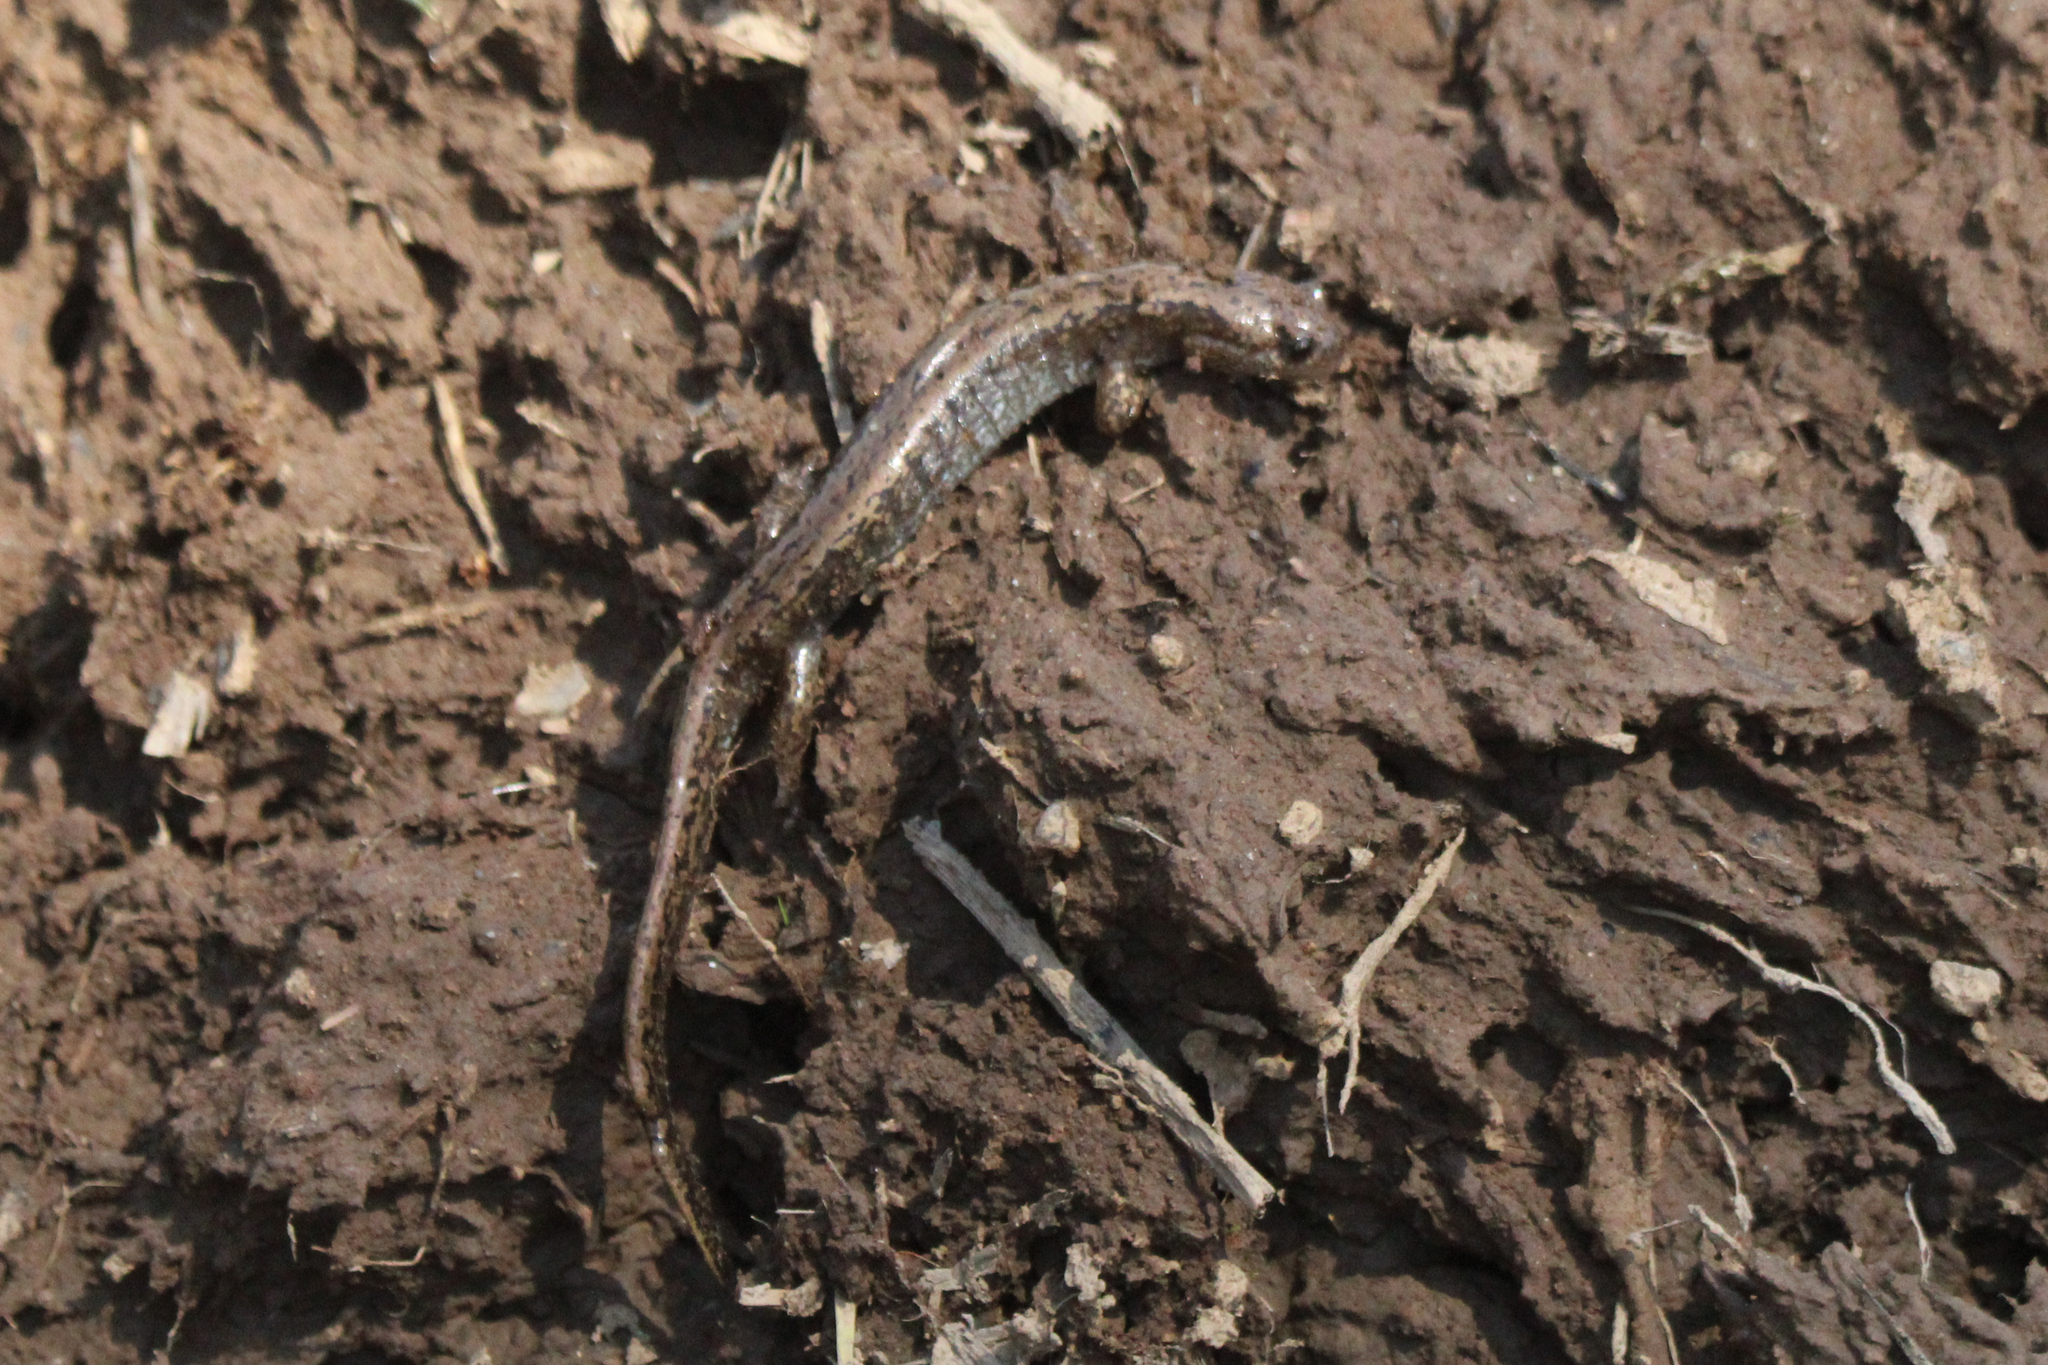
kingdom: Animalia
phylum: Chordata
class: Amphibia
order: Caudata
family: Hynobiidae
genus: Salamandrella
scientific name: Salamandrella tridactyla
